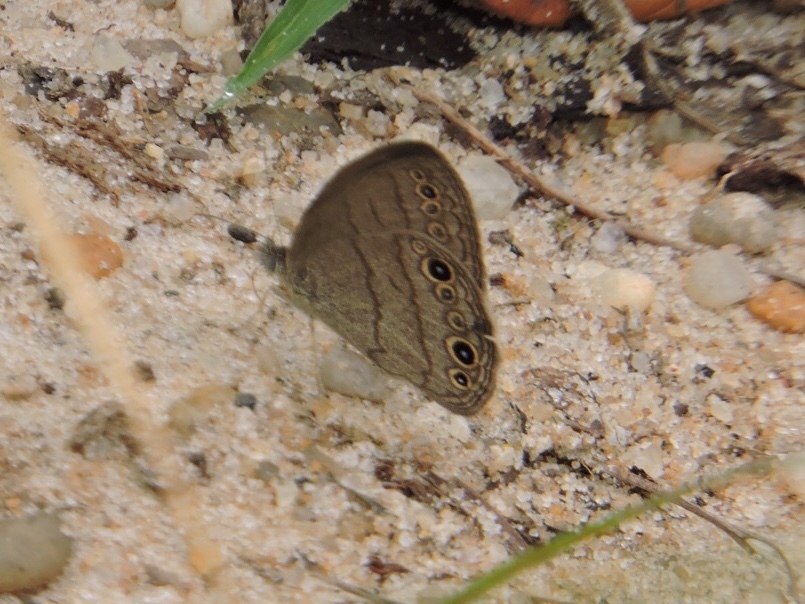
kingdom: Animalia
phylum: Arthropoda
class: Insecta
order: Lepidoptera
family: Nymphalidae
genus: Hermeuptychia
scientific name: Hermeuptychia hermes
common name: Hermes satyr
